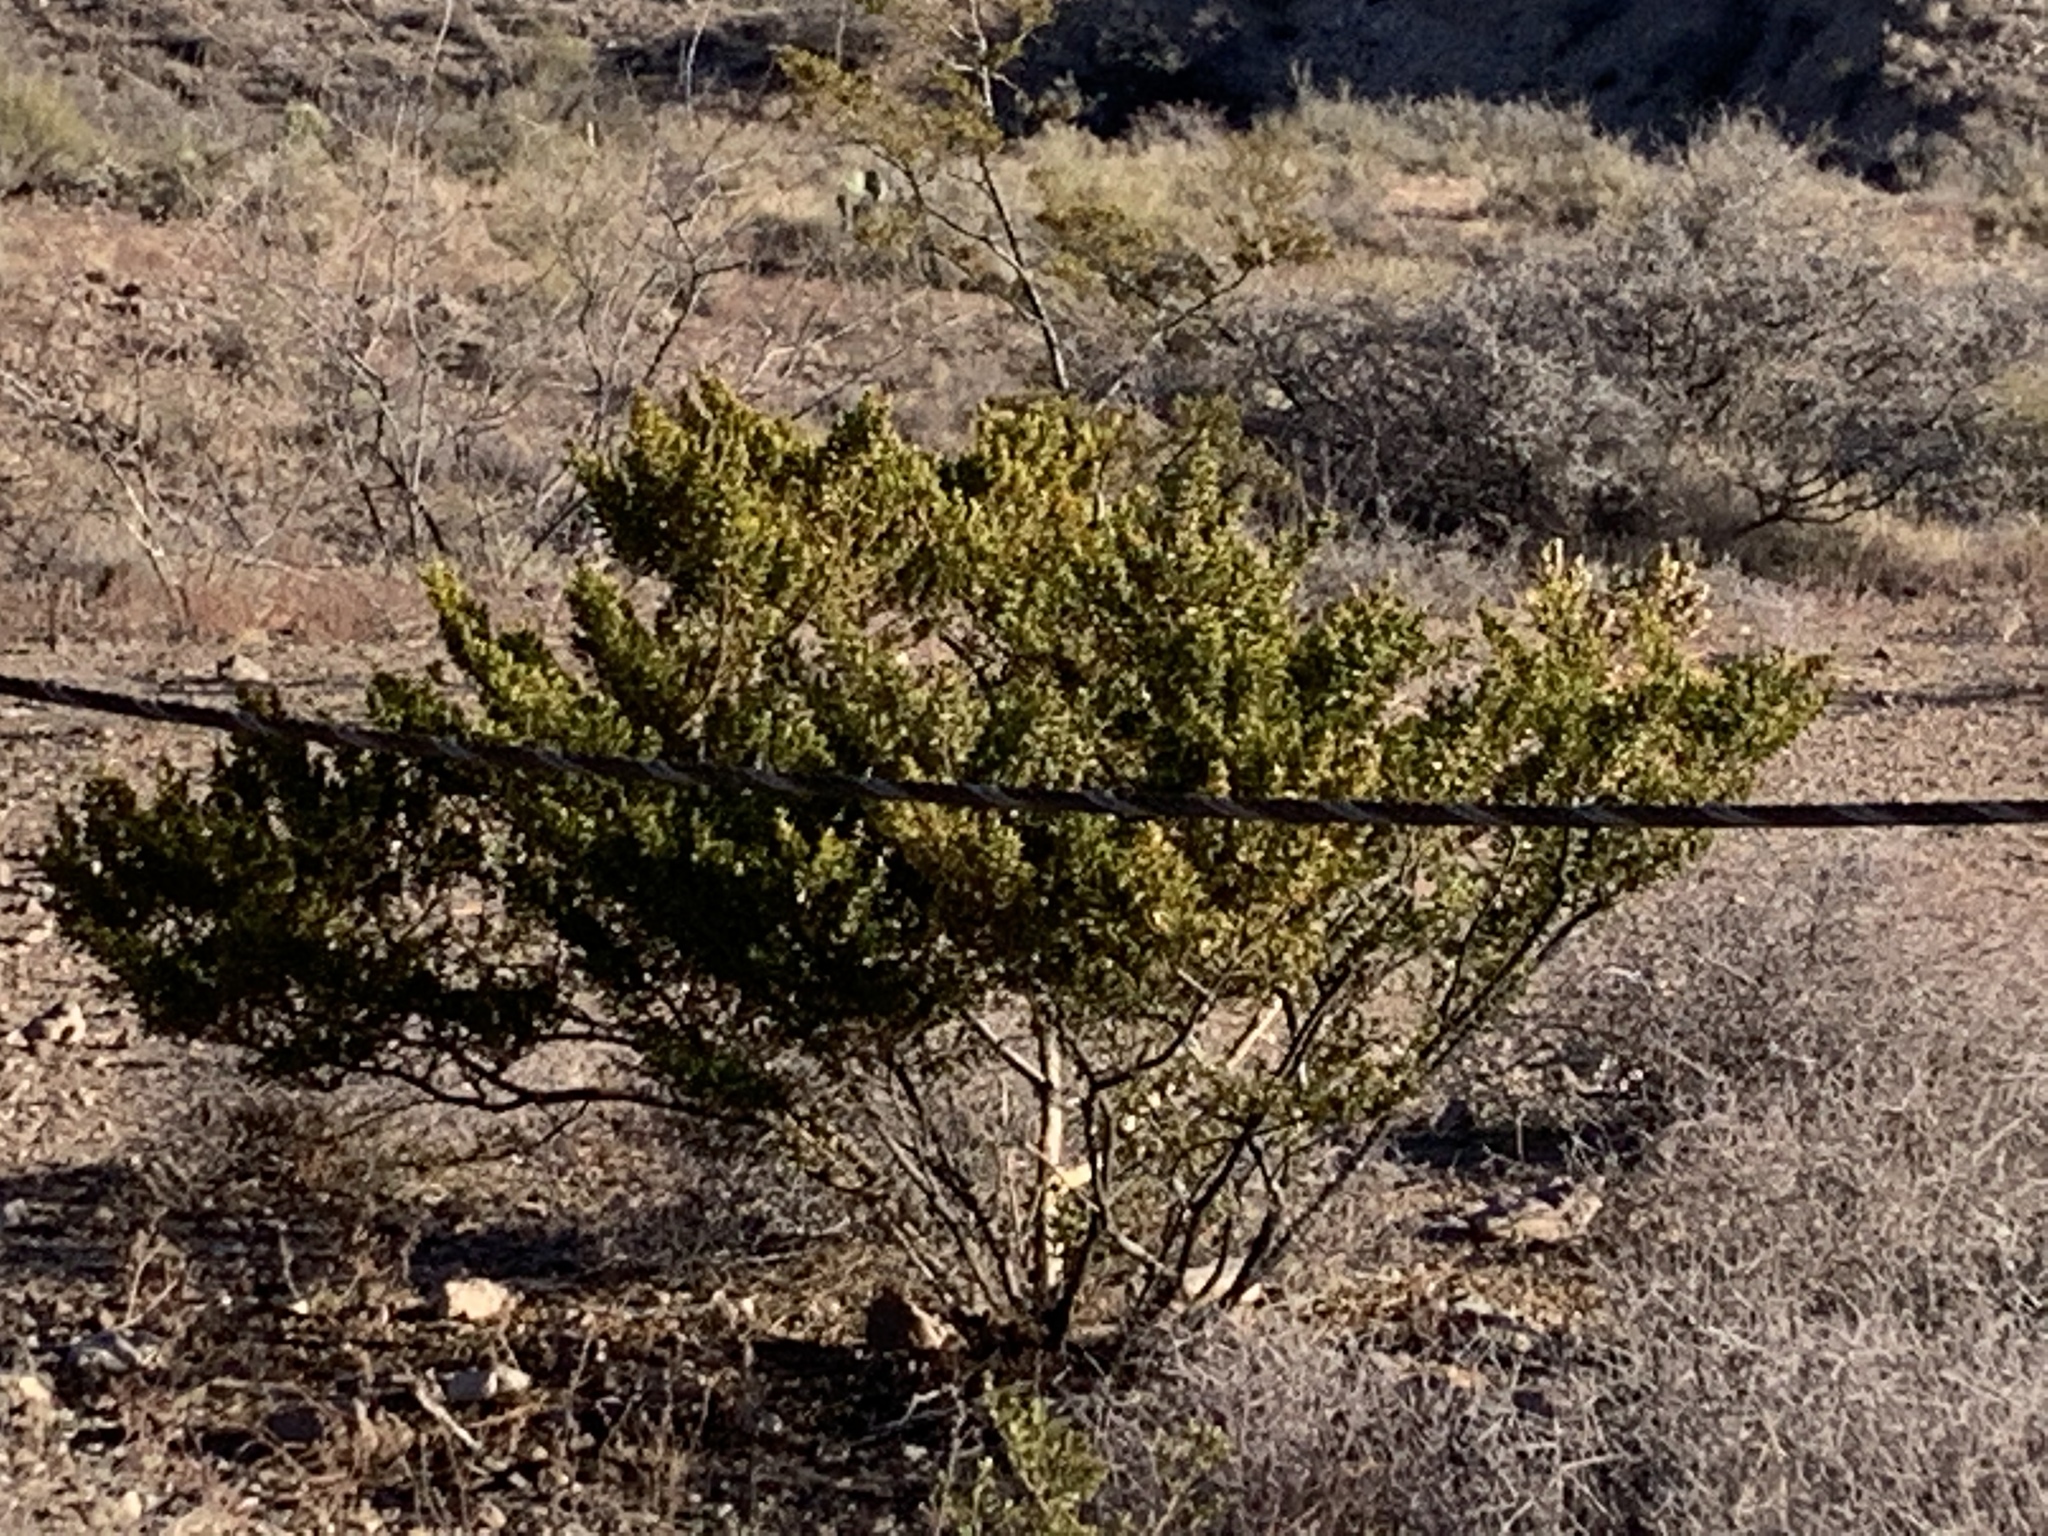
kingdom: Plantae
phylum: Tracheophyta
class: Magnoliopsida
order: Zygophyllales
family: Zygophyllaceae
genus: Larrea
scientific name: Larrea tridentata
